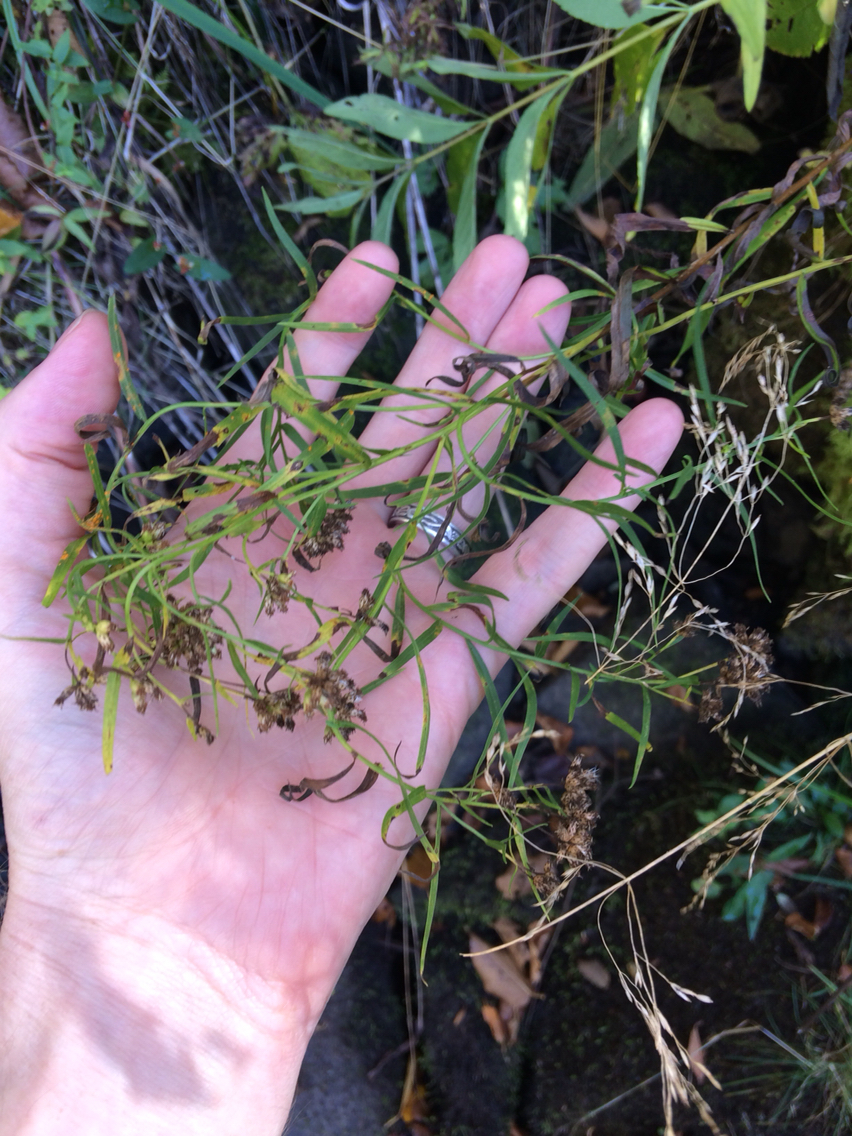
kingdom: Plantae
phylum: Tracheophyta
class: Magnoliopsida
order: Asterales
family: Asteraceae
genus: Euthamia
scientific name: Euthamia graminifolia
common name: Common goldentop
